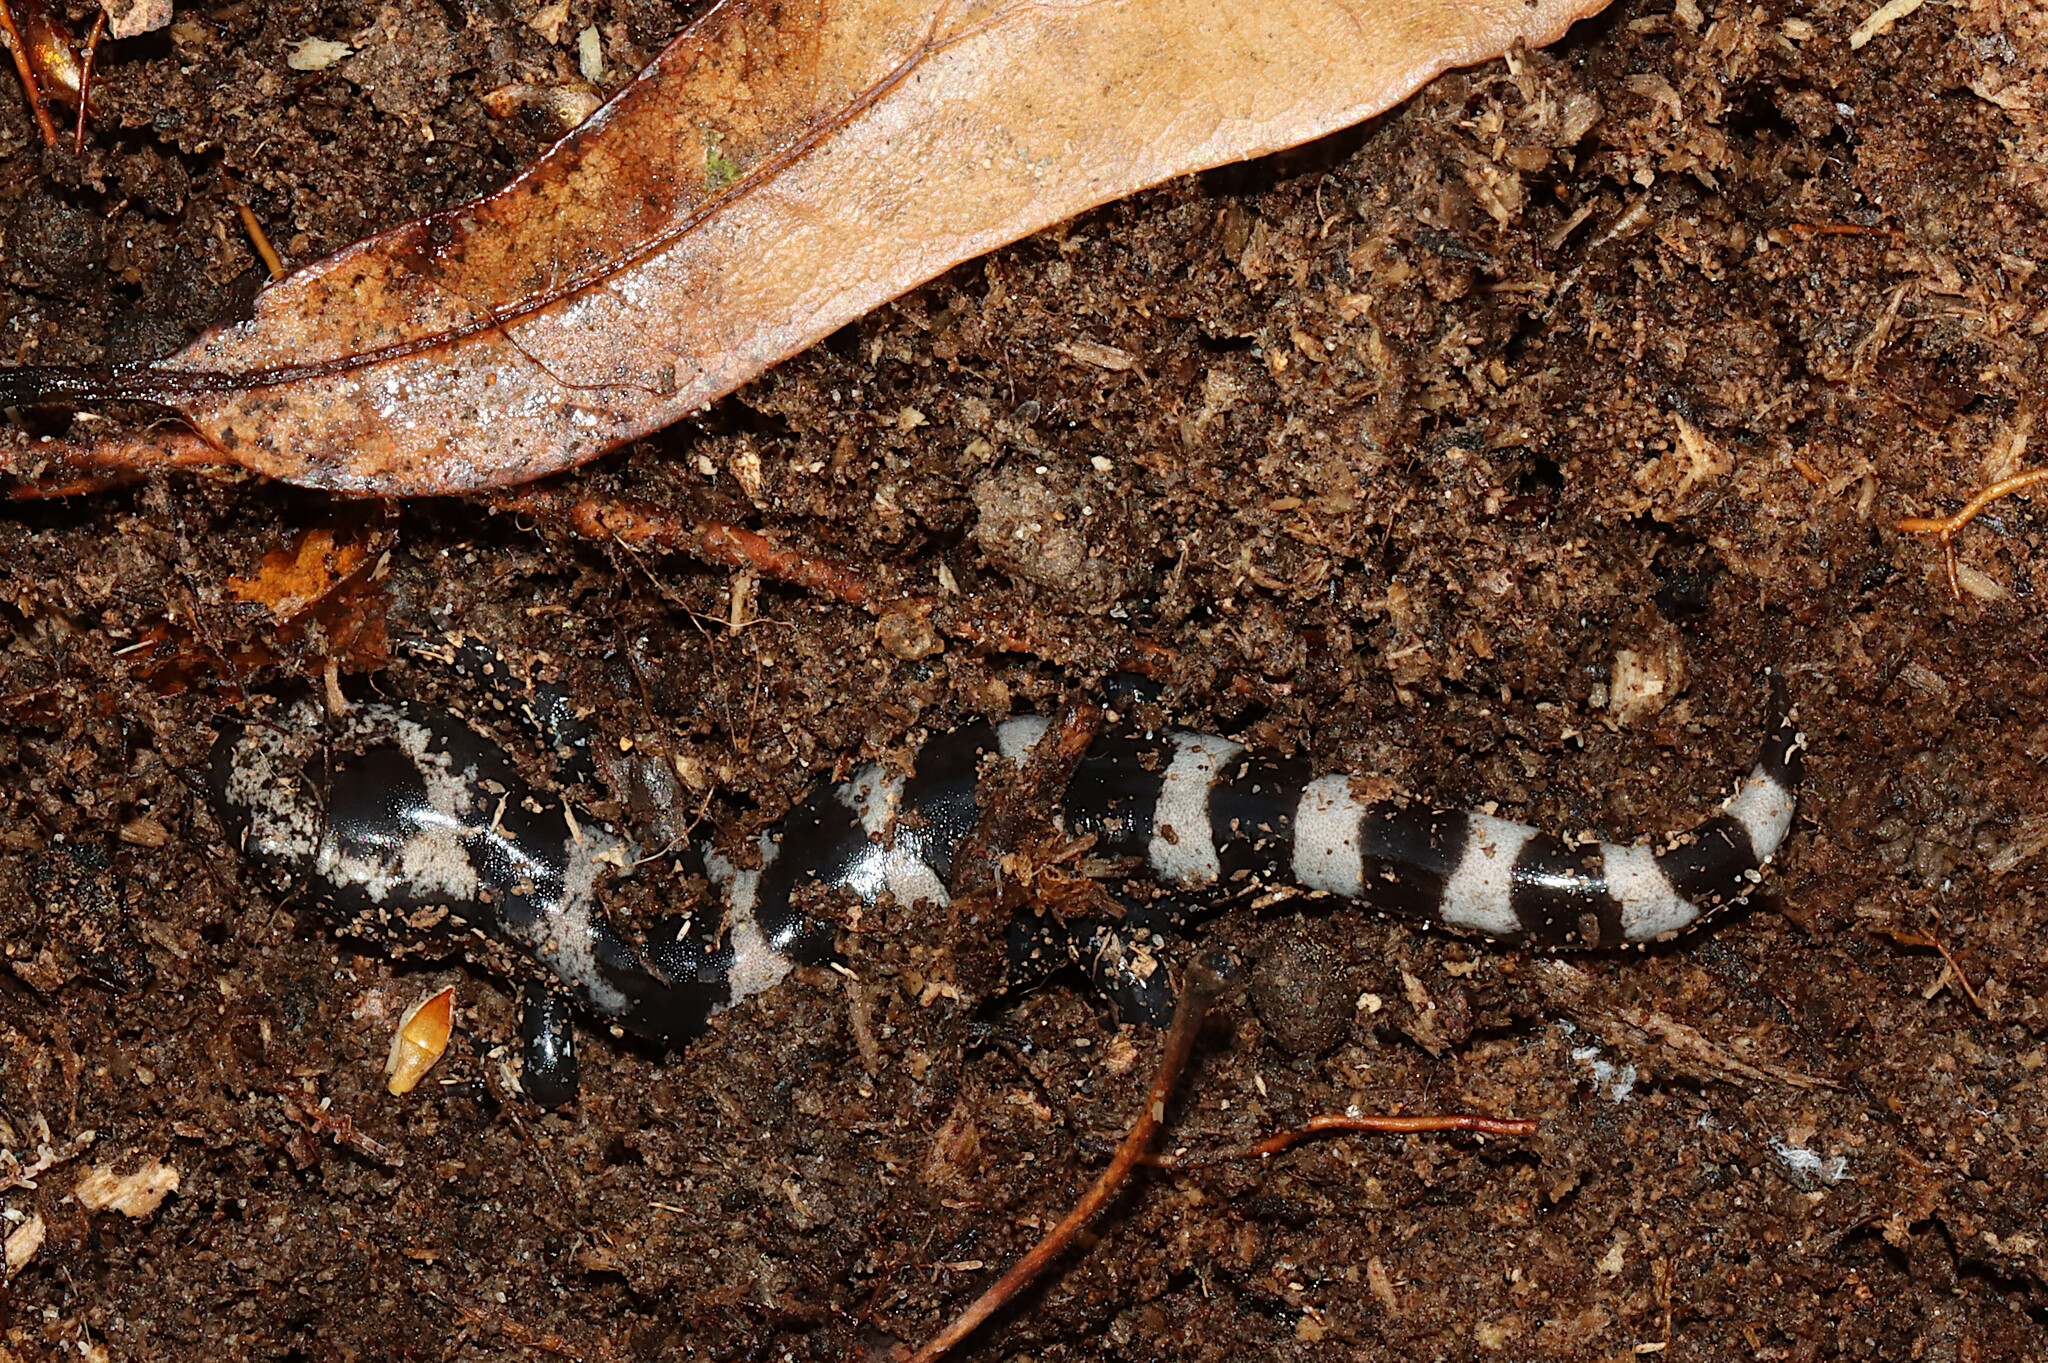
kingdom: Animalia
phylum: Chordata
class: Amphibia
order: Caudata
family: Ambystomatidae
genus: Ambystoma
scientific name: Ambystoma opacum
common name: Marbled salamander
